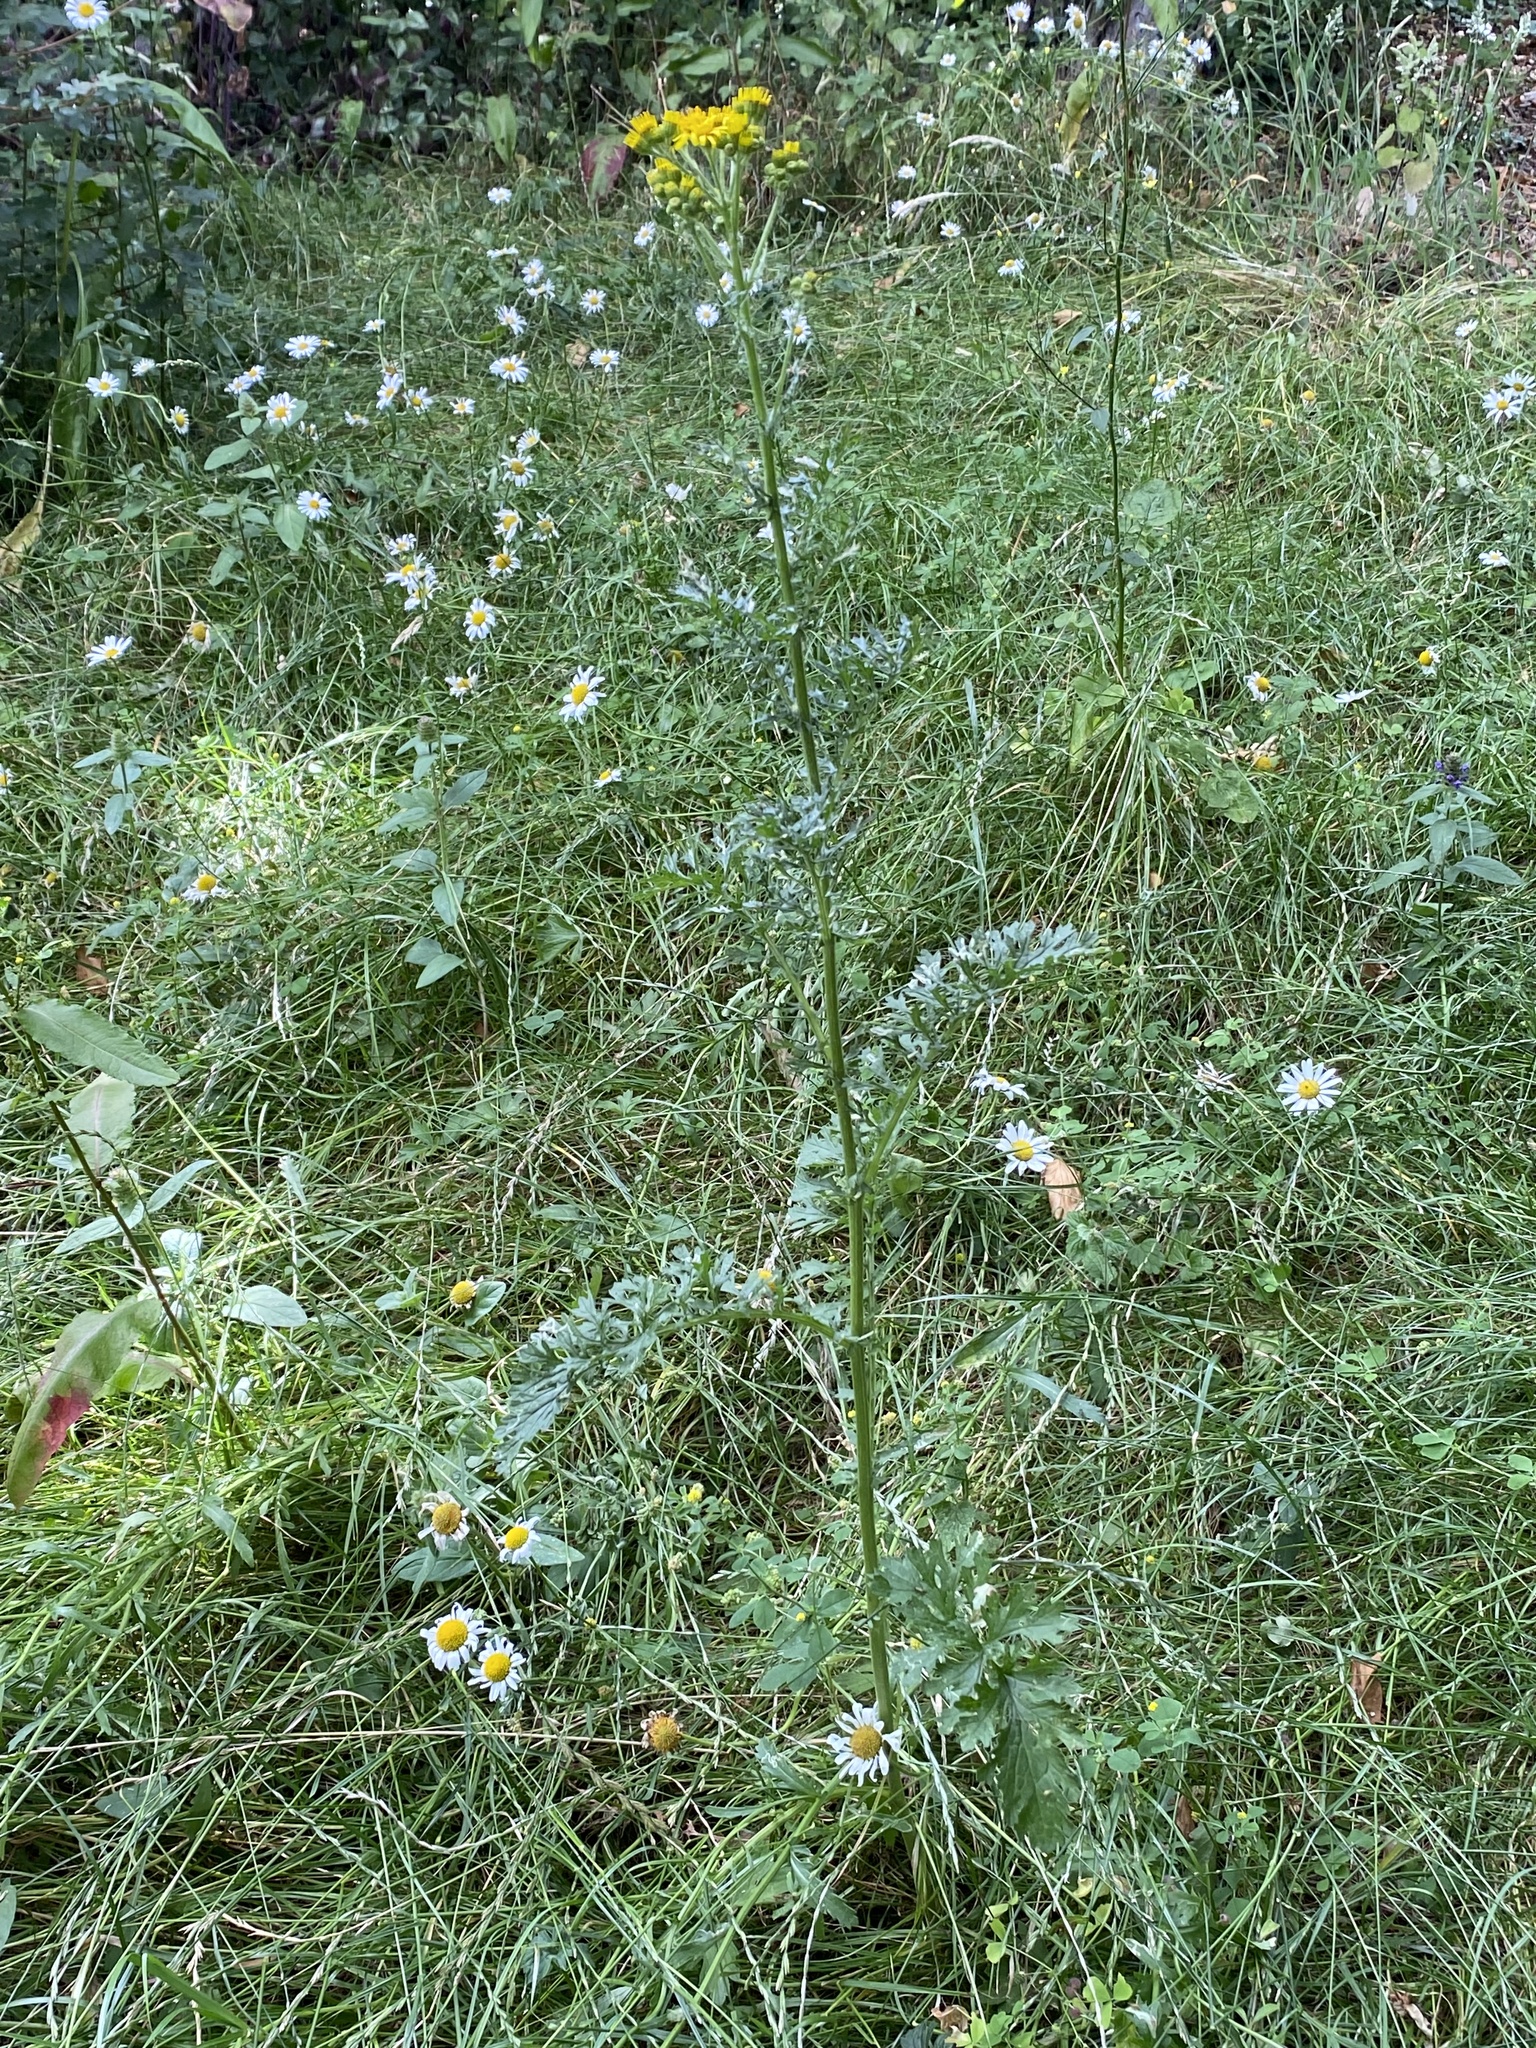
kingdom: Plantae
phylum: Tracheophyta
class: Magnoliopsida
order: Asterales
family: Asteraceae
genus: Jacobaea
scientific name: Jacobaea vulgaris
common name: Stinking willie
